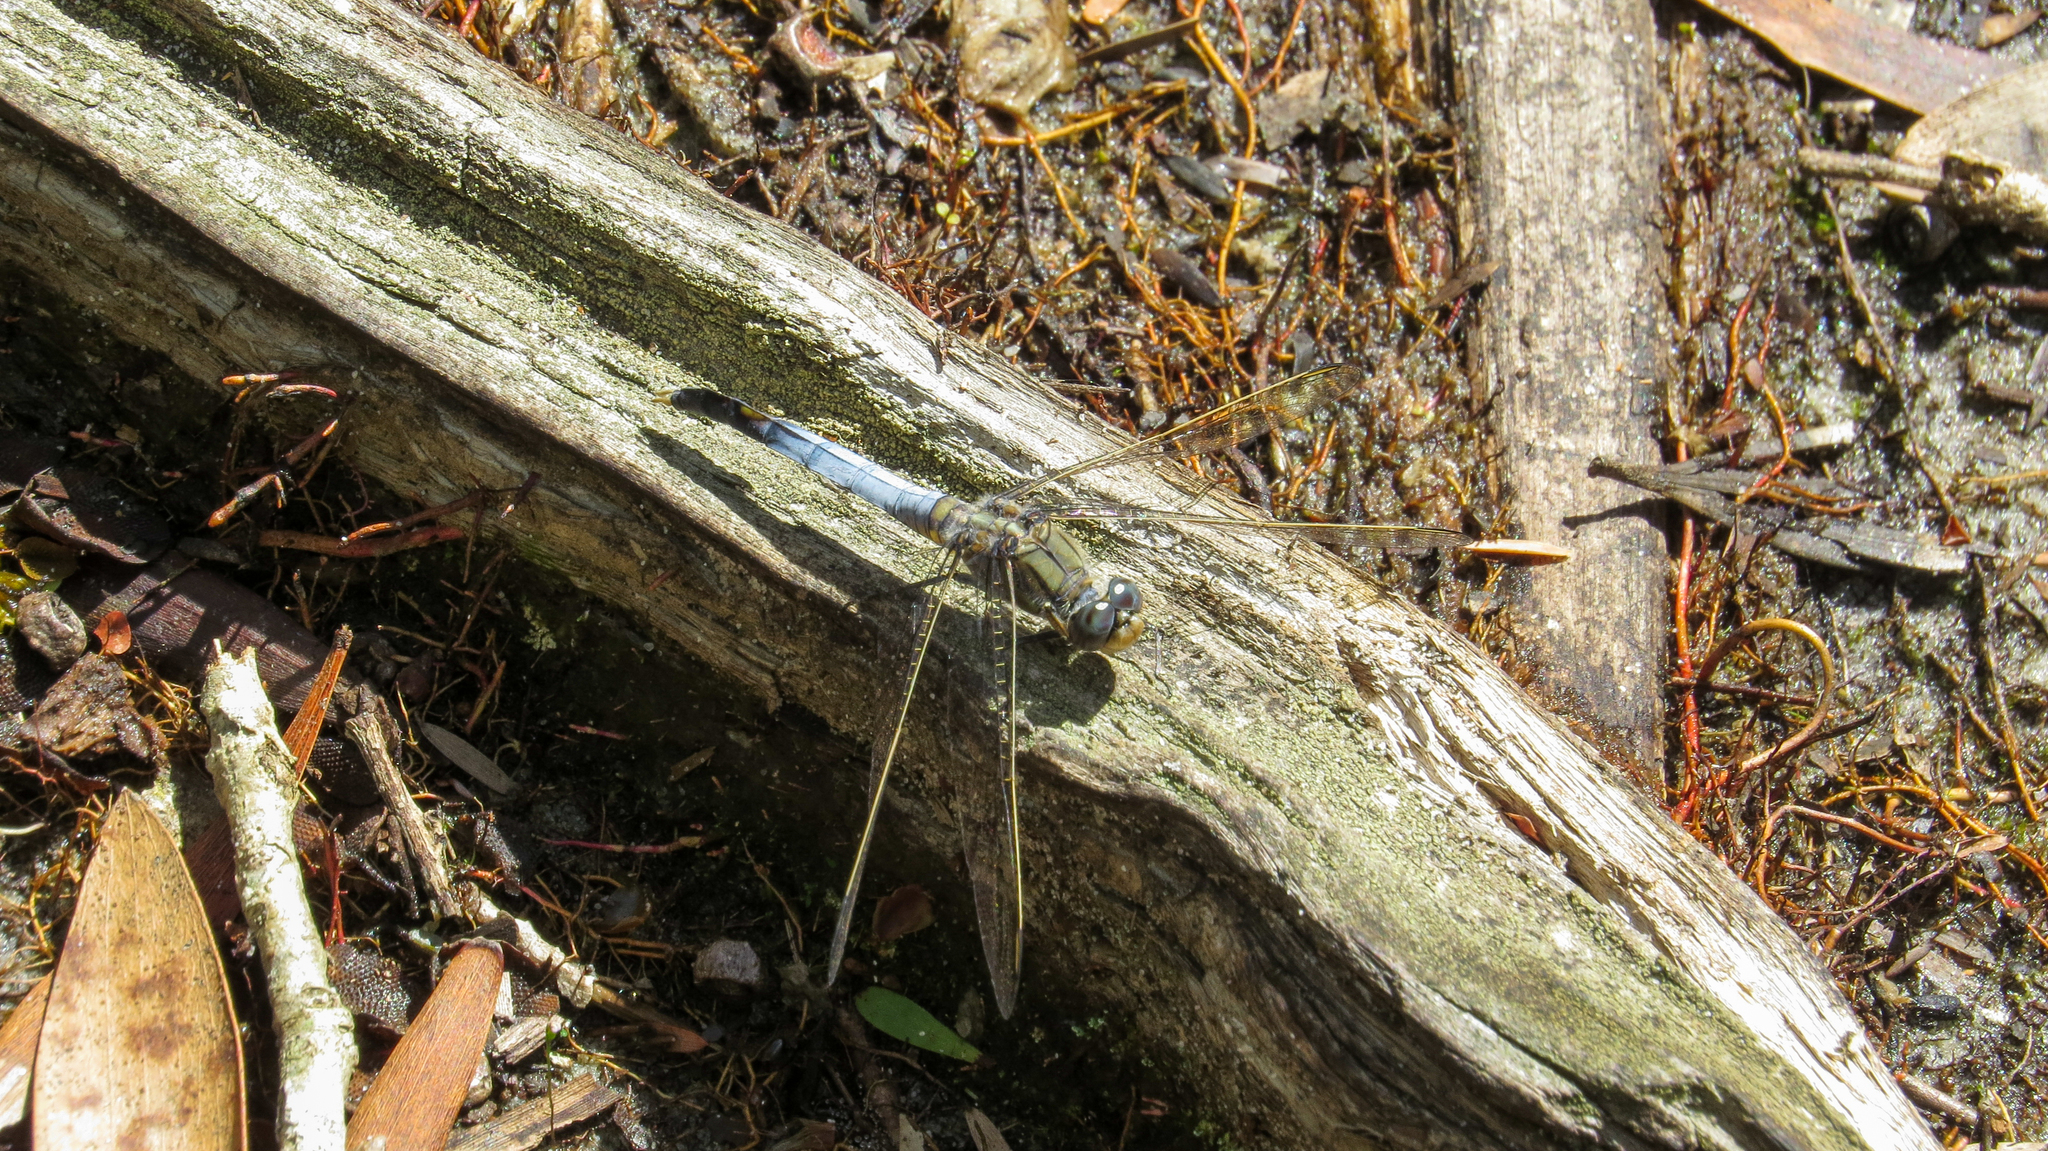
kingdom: Animalia
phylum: Arthropoda
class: Insecta
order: Odonata
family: Libellulidae
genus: Orthetrum
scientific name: Orthetrum caledonicum
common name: Blue skimmer
